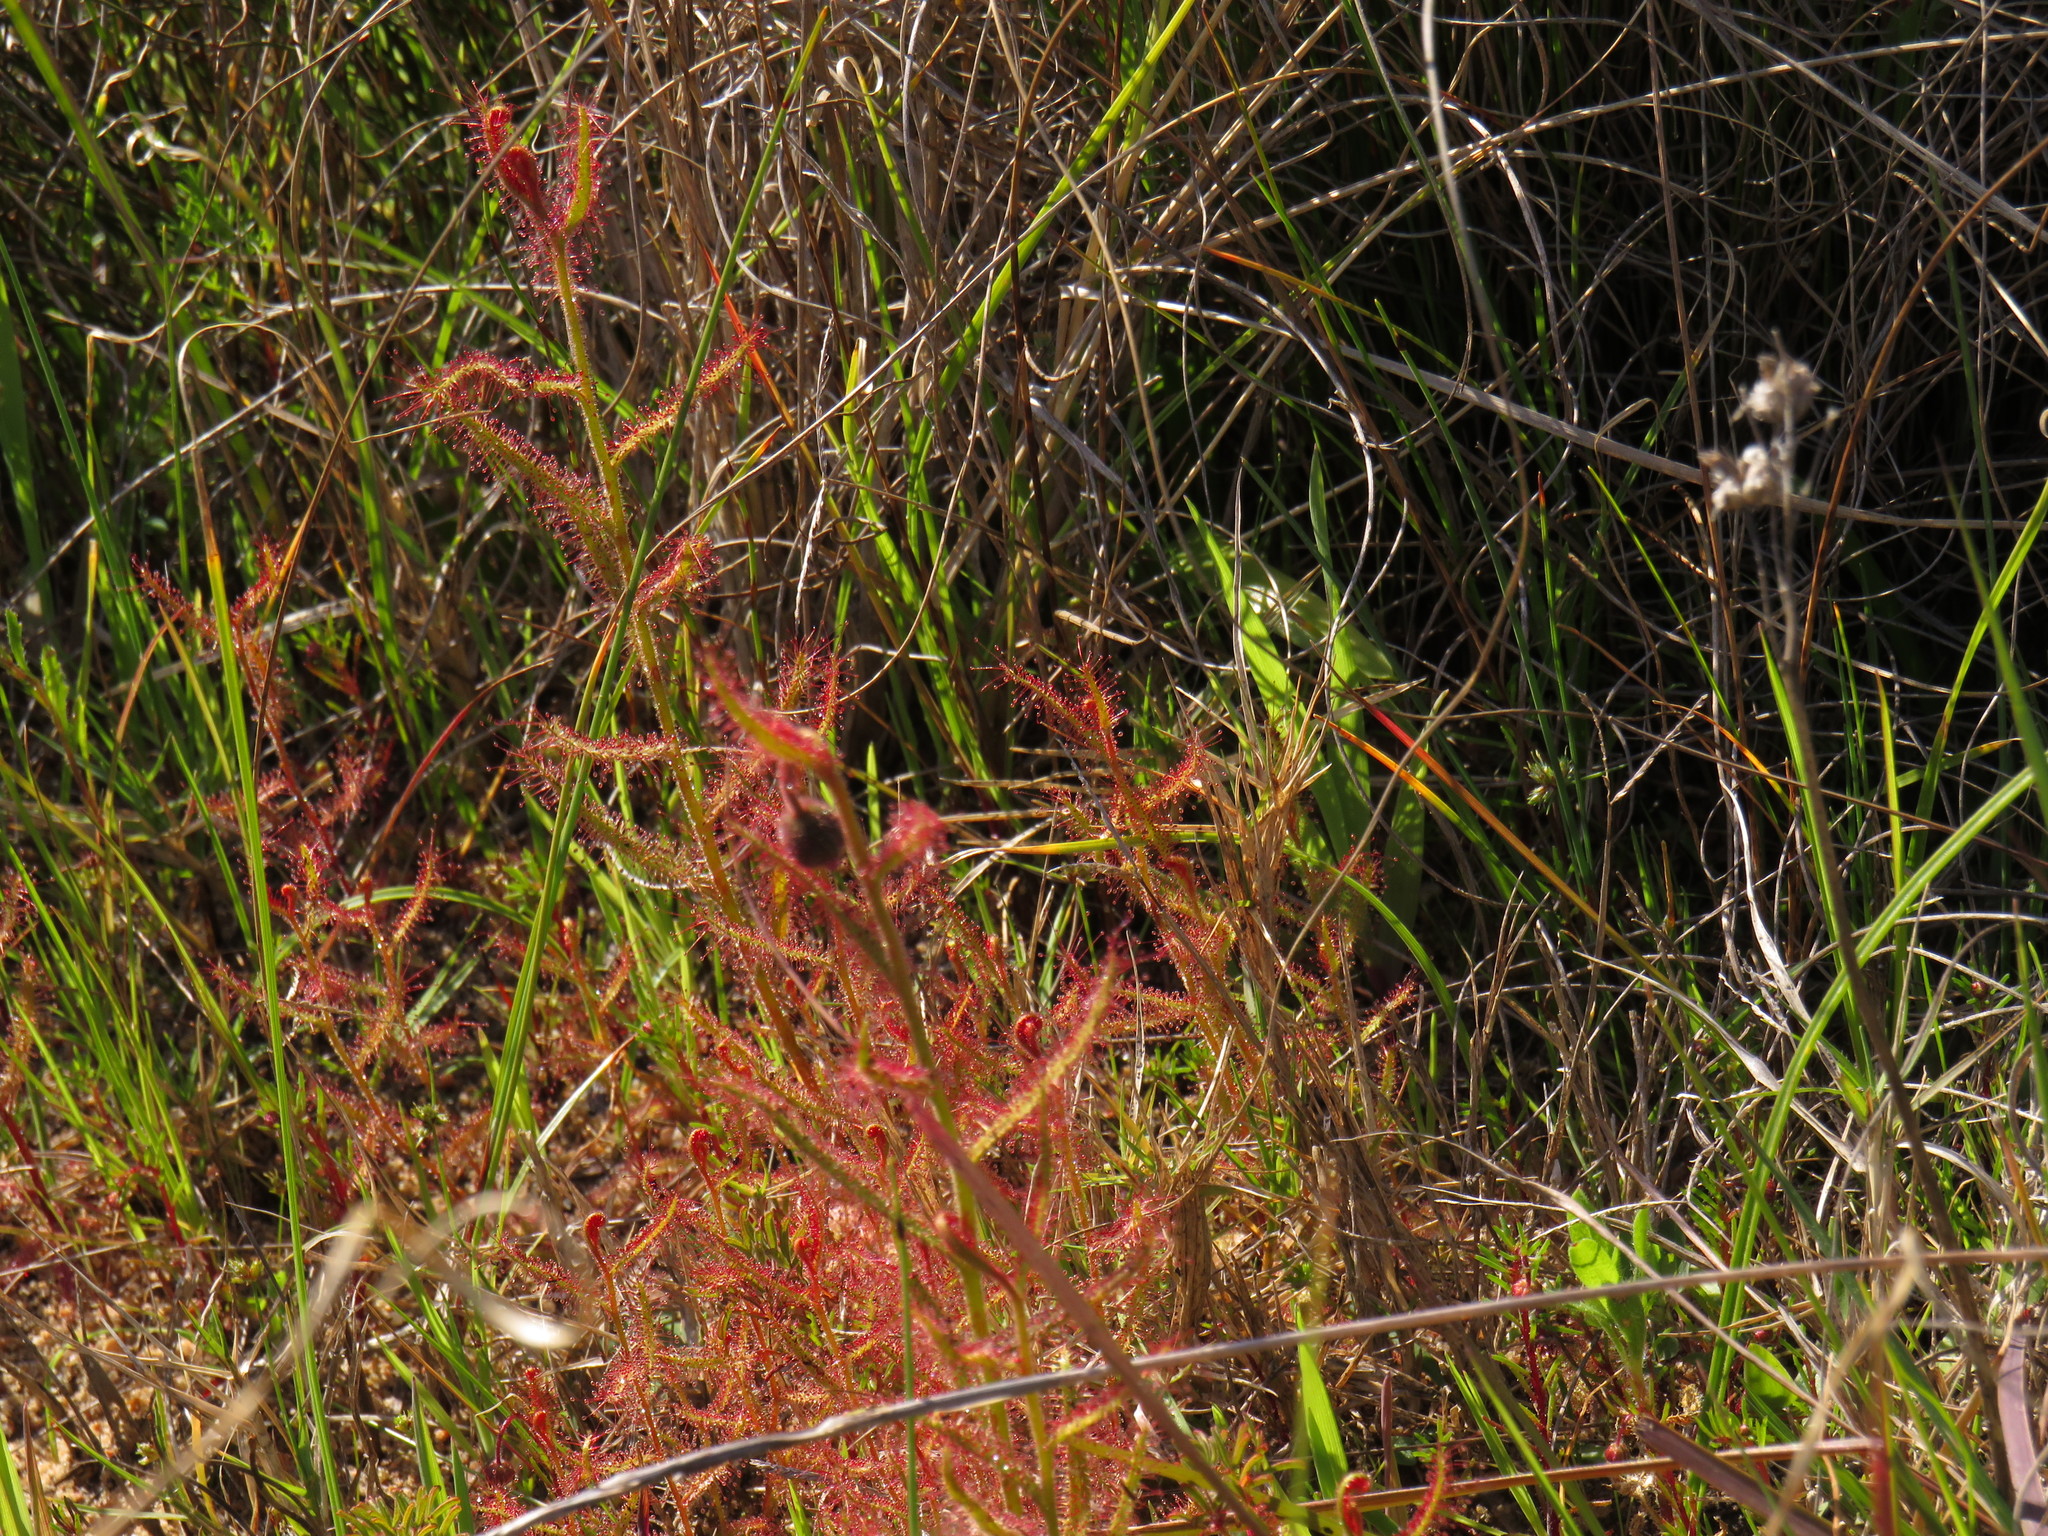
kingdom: Plantae
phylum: Tracheophyta
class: Magnoliopsida
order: Caryophyllales
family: Droseraceae
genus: Drosera
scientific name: Drosera cistiflora
